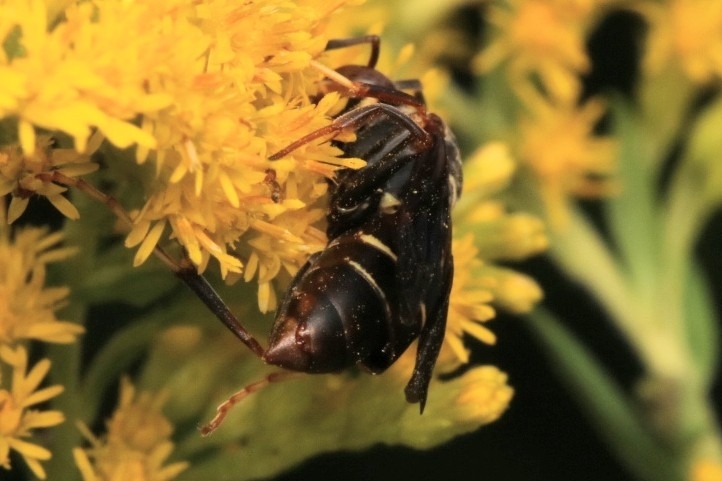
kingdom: Animalia
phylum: Arthropoda
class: Insecta
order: Strepsiptera
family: Xenidae
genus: Xenos
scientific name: Xenos pecki
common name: Twisted wing parasite
